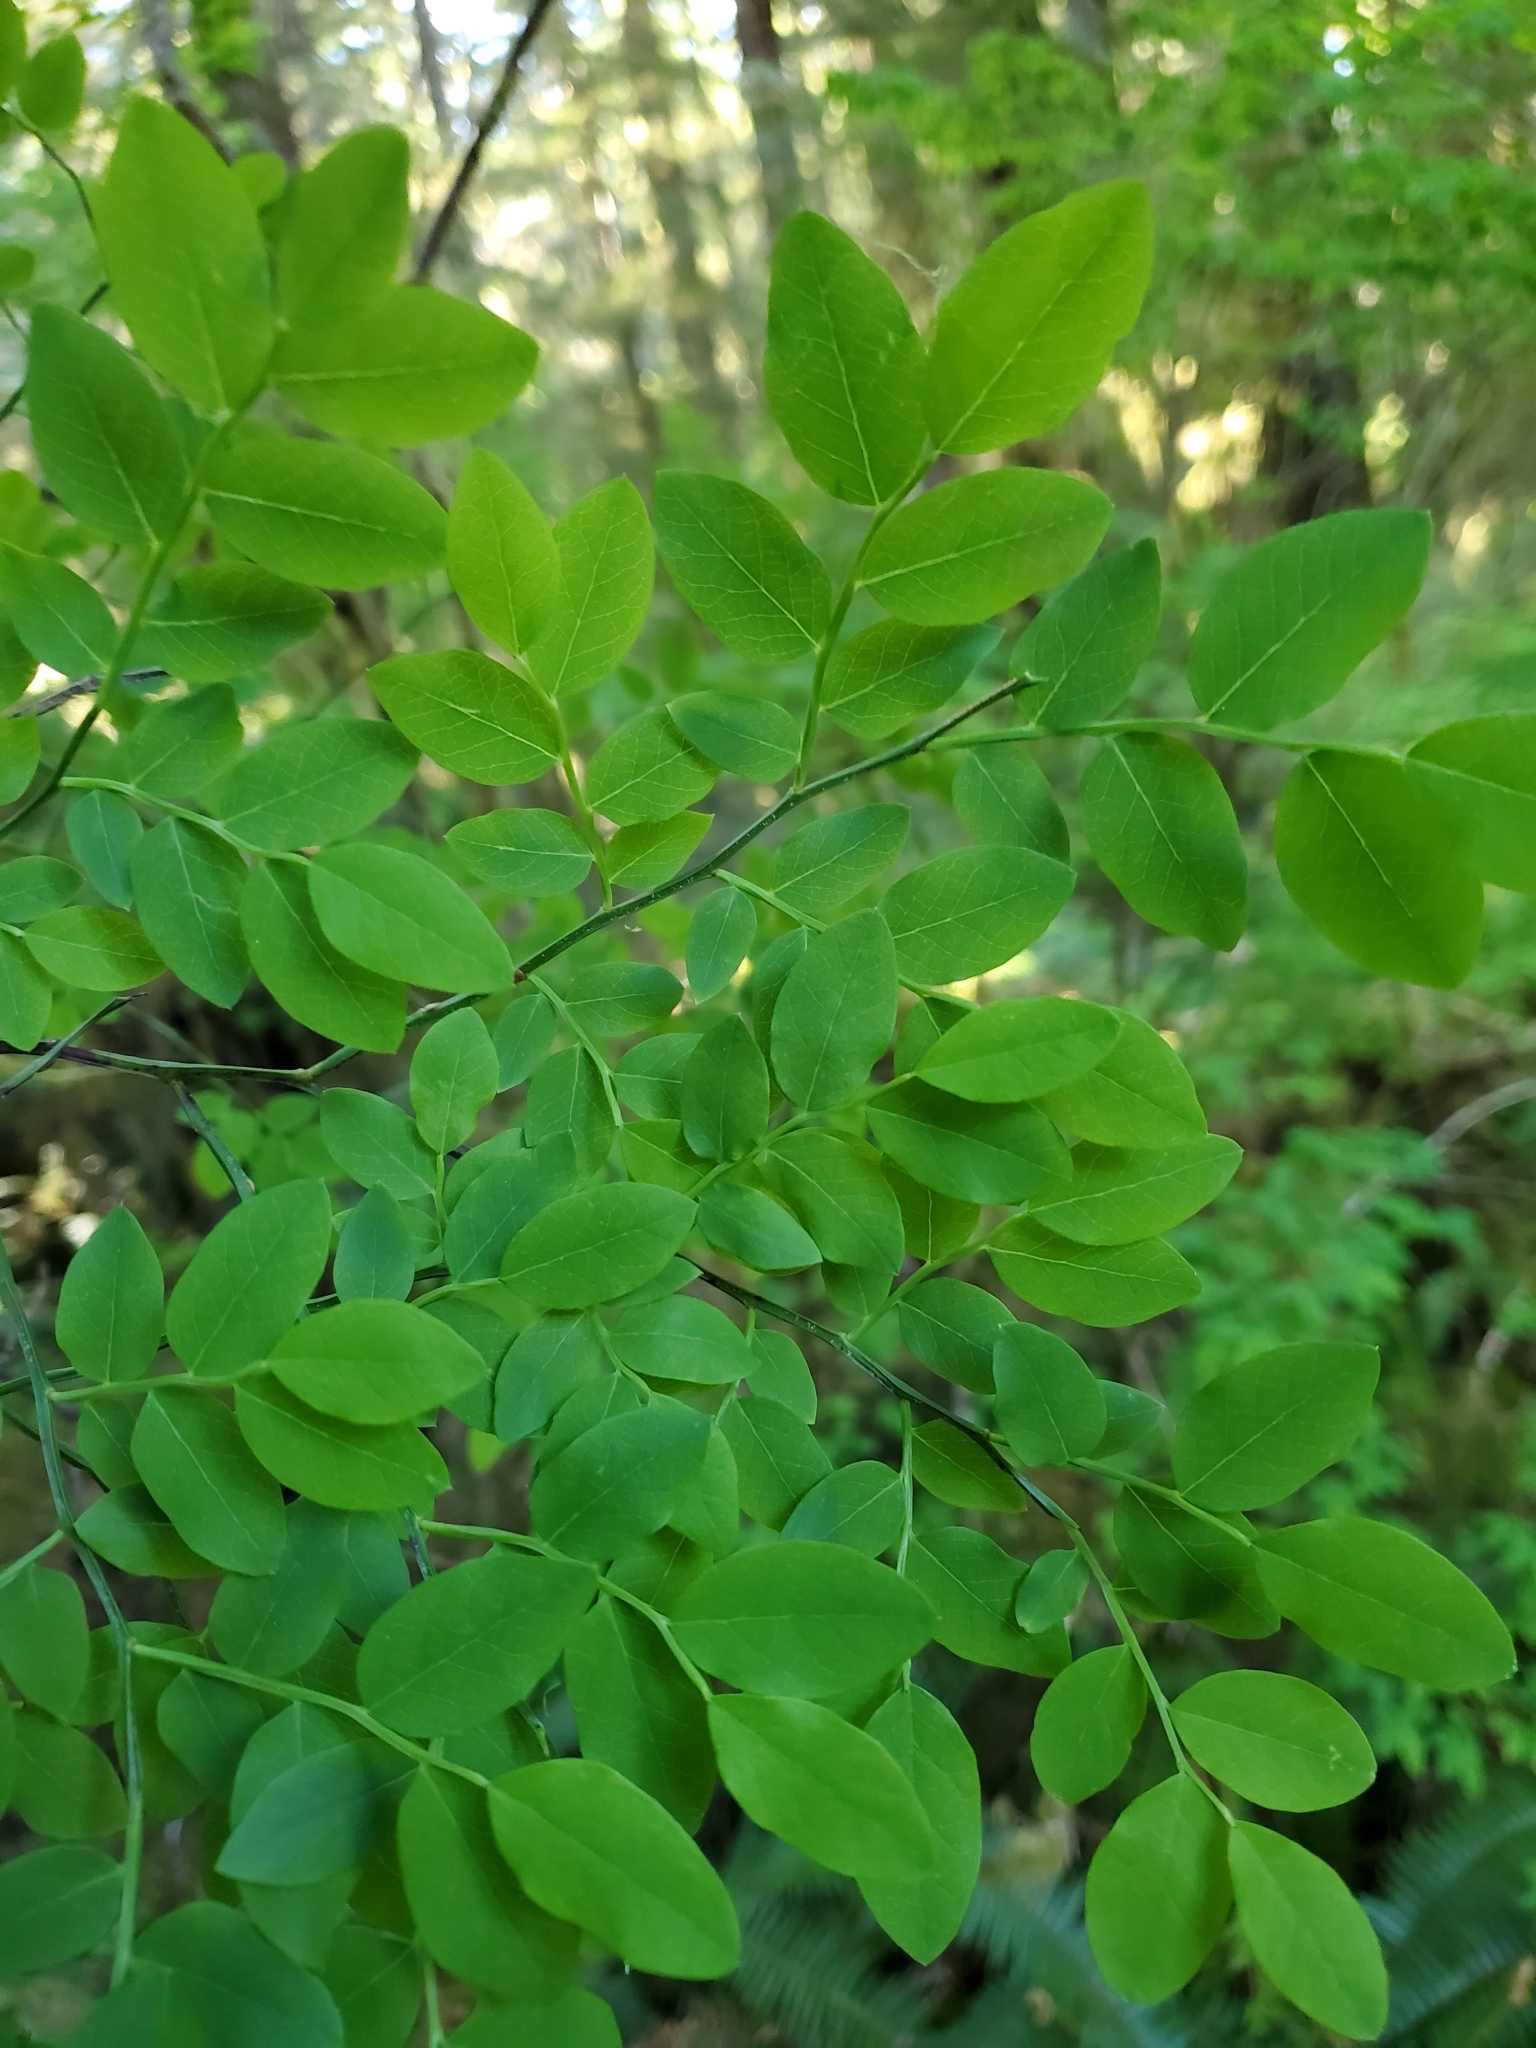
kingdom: Plantae
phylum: Tracheophyta
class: Magnoliopsida
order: Ericales
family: Ericaceae
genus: Vaccinium
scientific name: Vaccinium parvifolium
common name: Red-huckleberry
